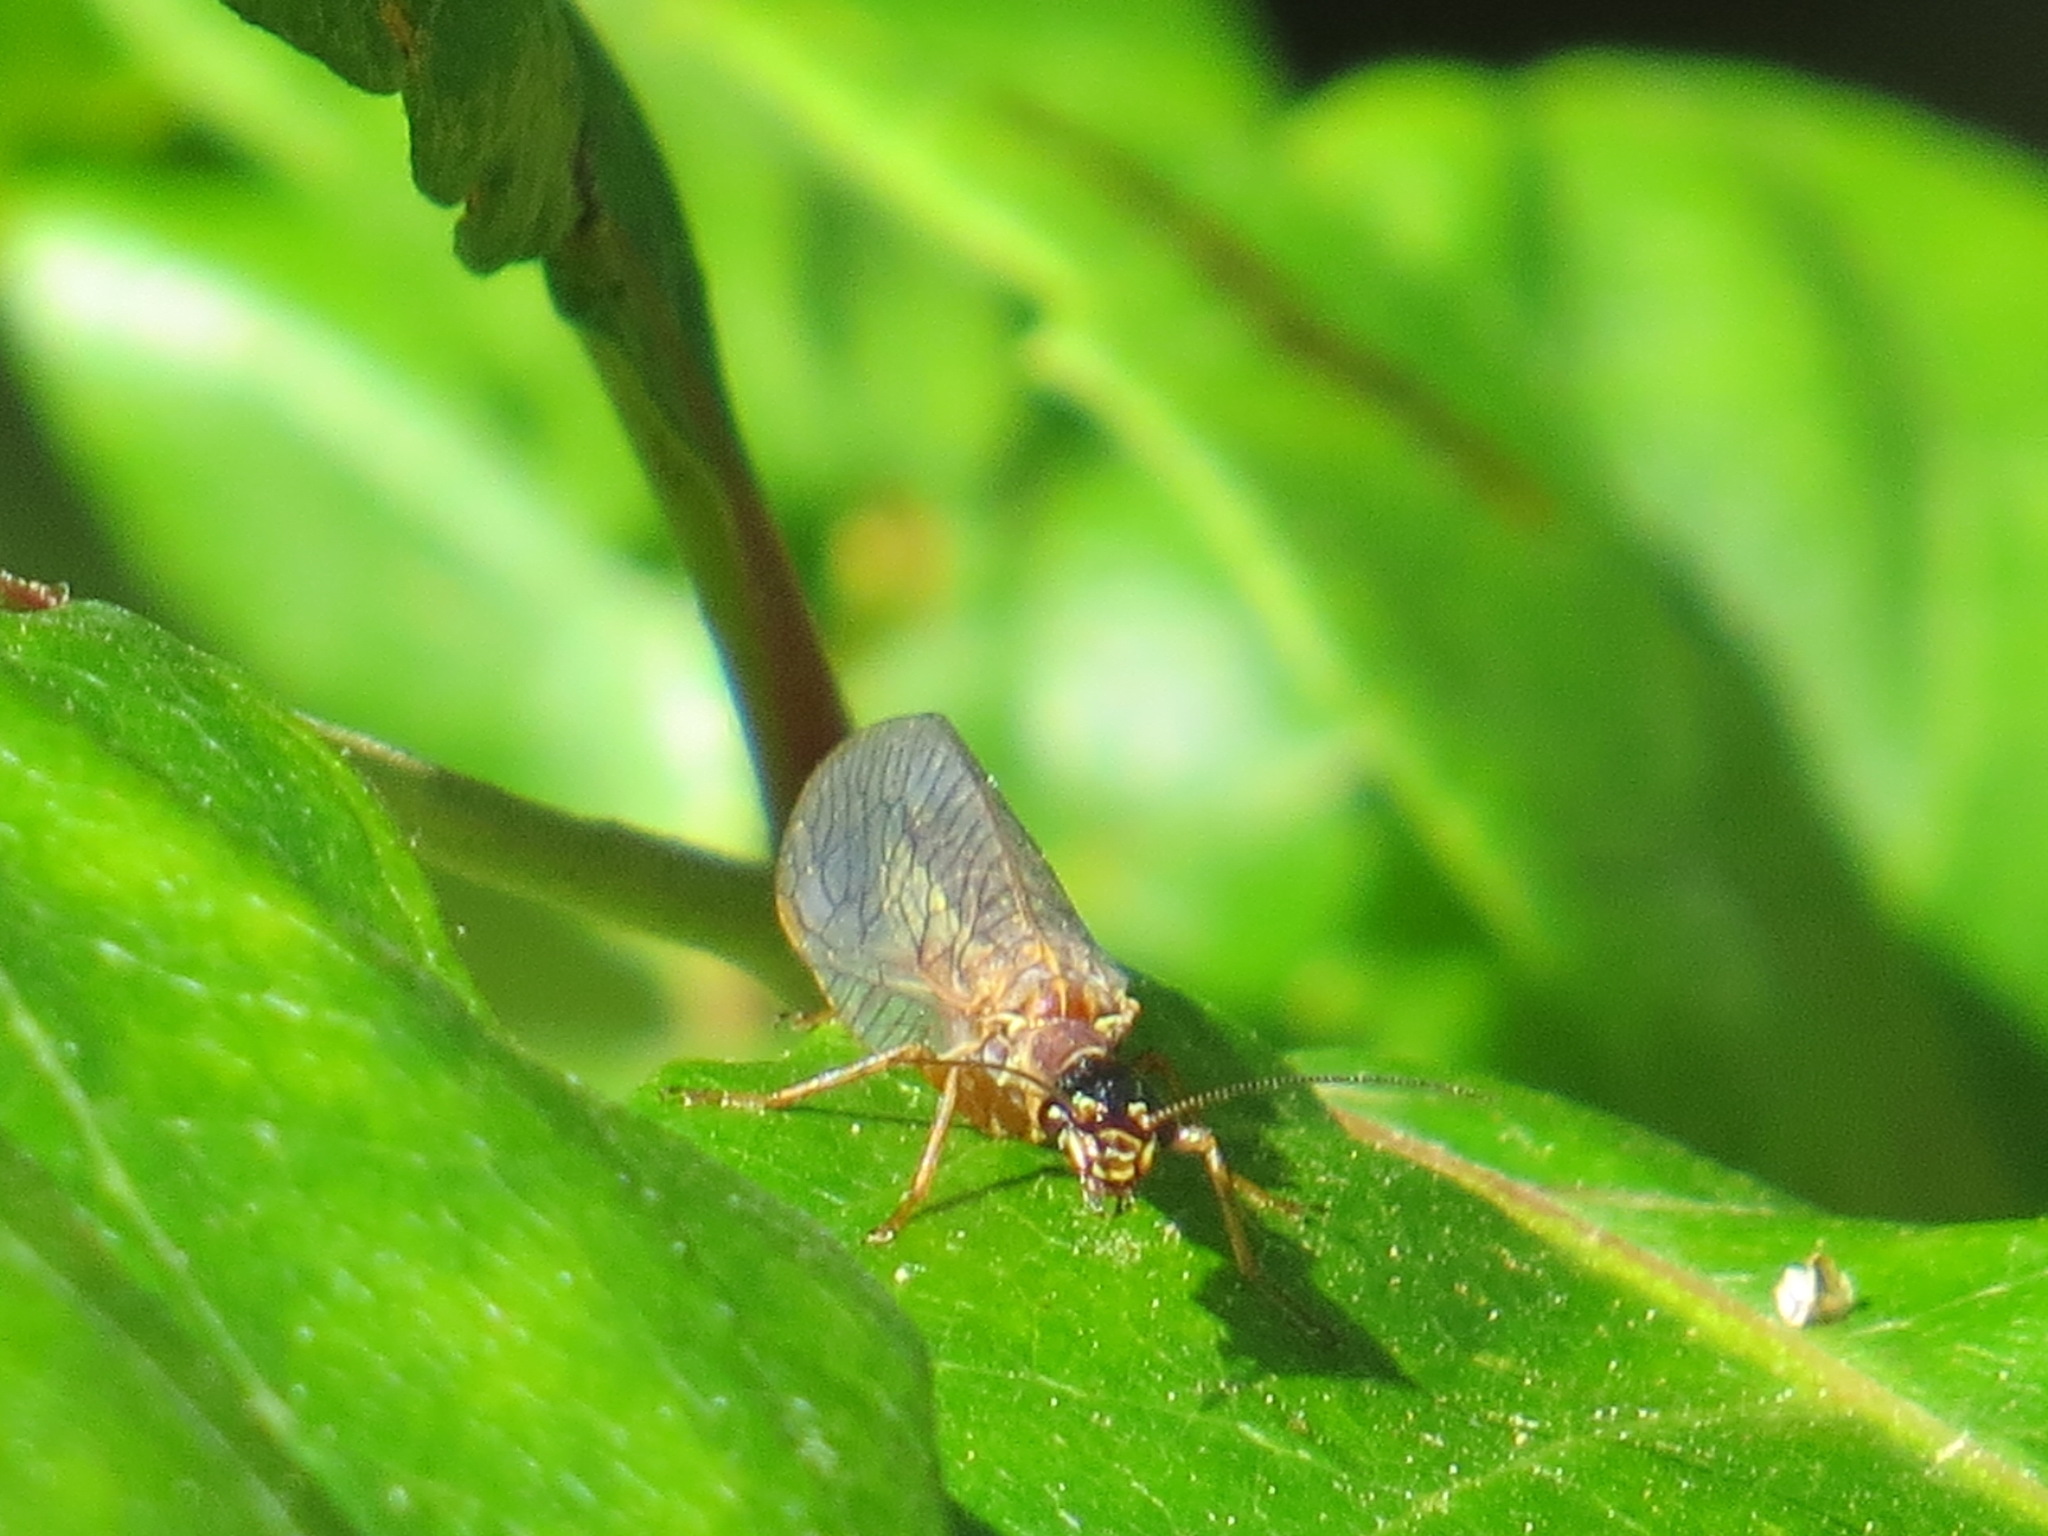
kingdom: Animalia
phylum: Arthropoda
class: Insecta
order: Raphidioptera
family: Raphidiidae
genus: Agulla
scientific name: Agulla
